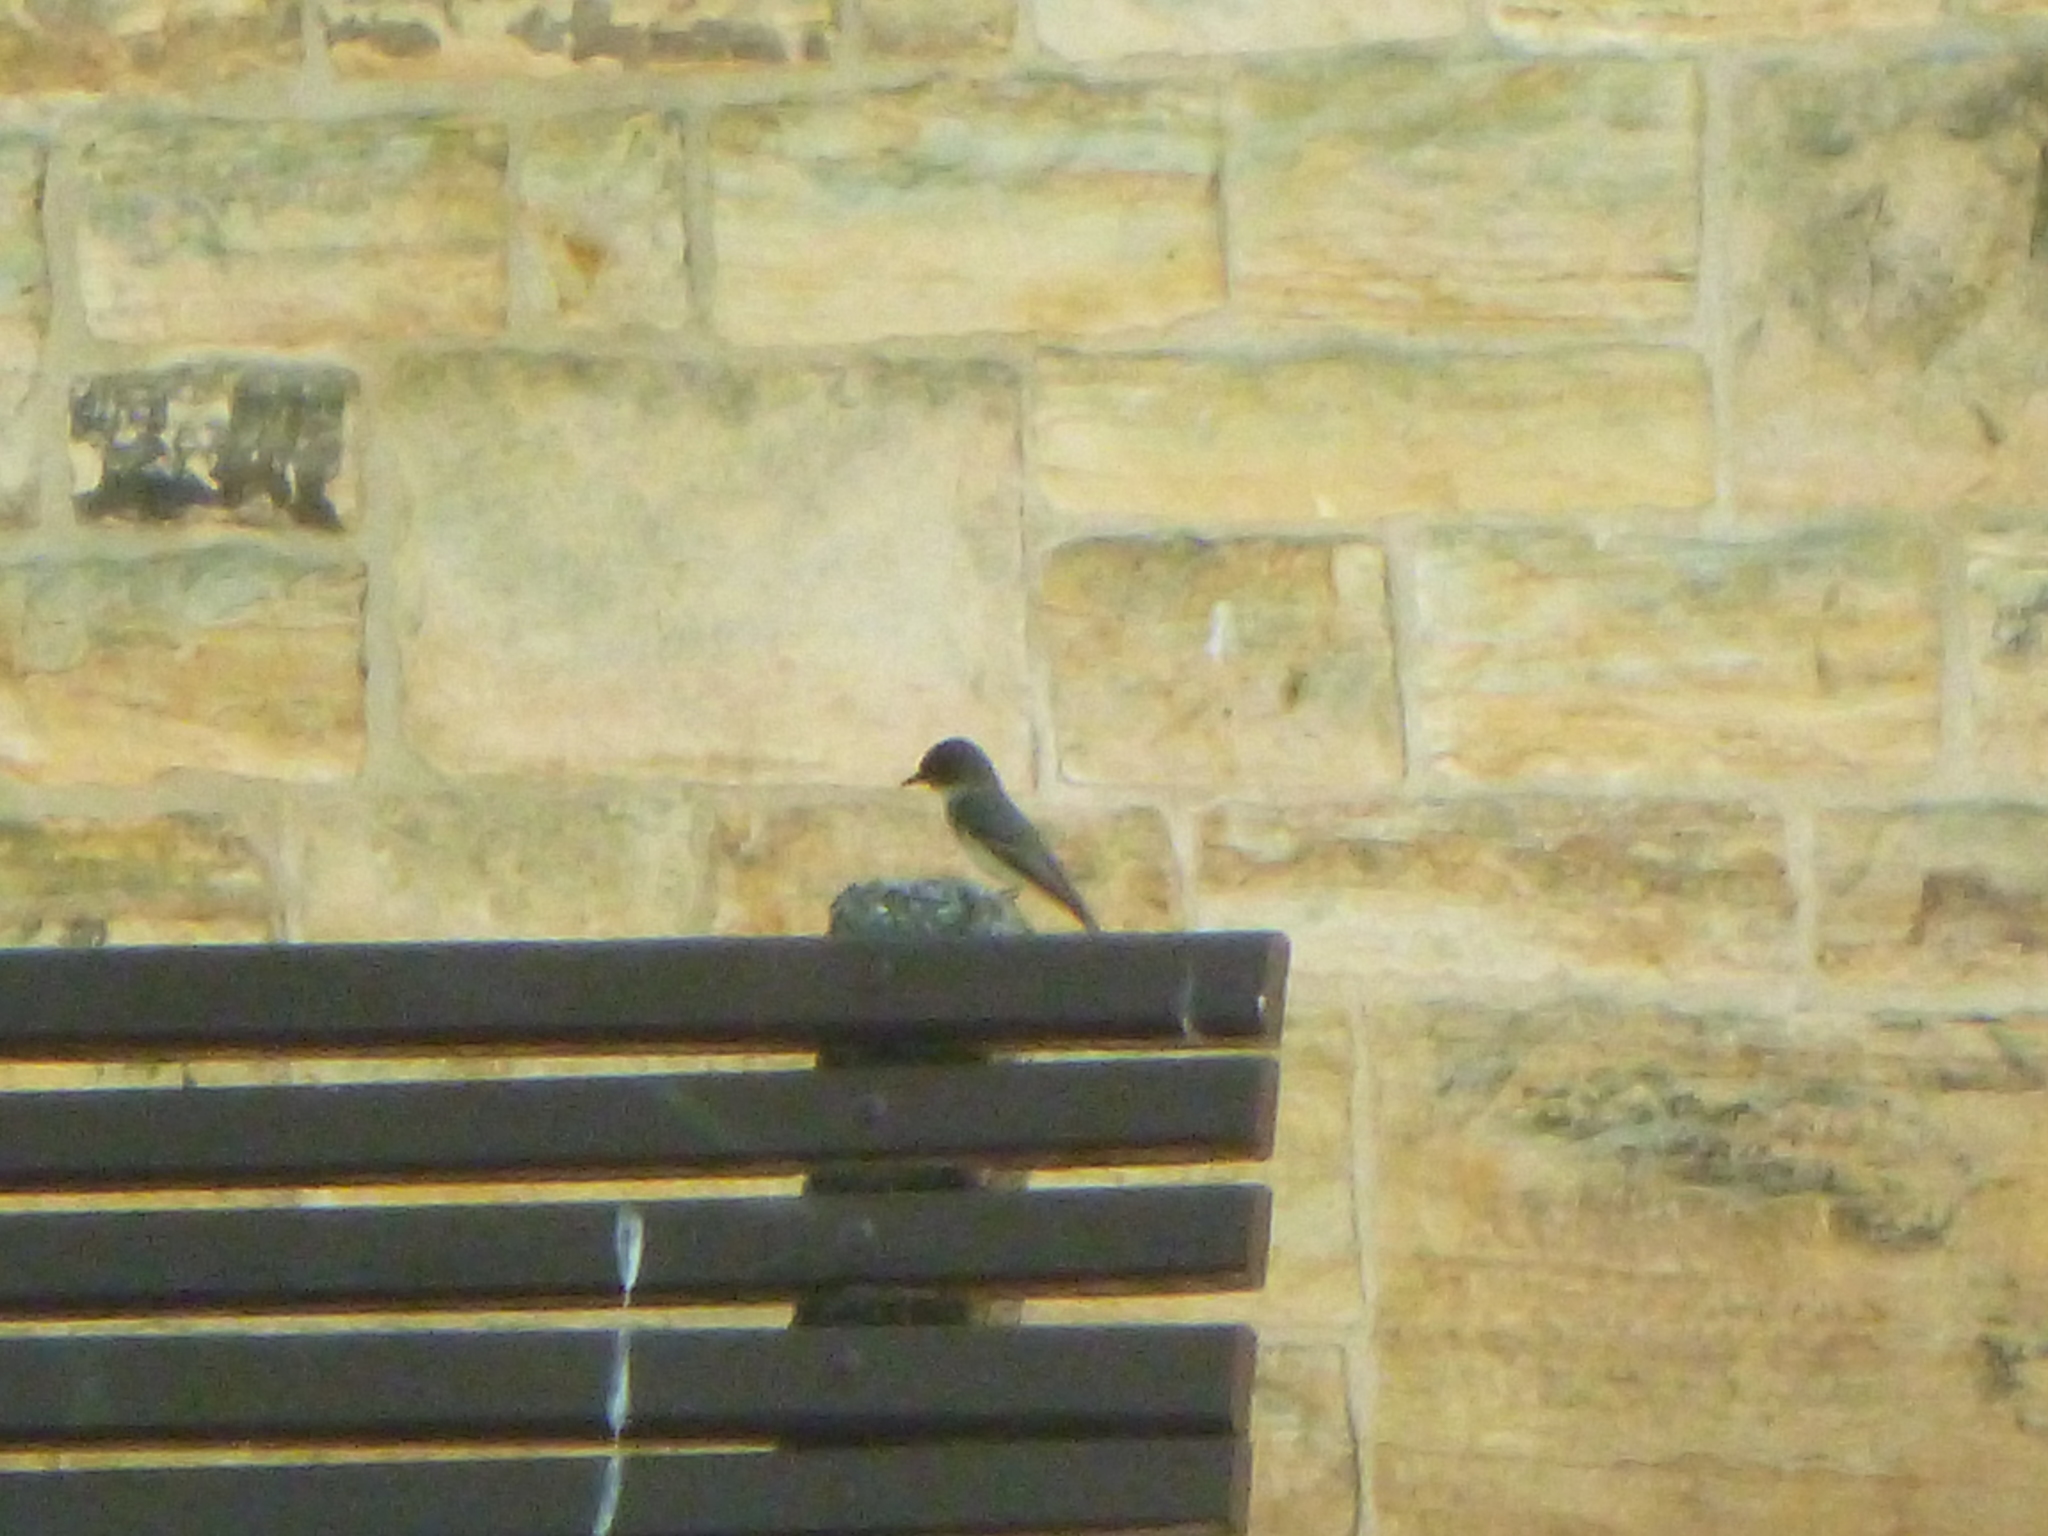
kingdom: Animalia
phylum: Chordata
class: Aves
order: Passeriformes
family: Tyrannidae
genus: Sayornis
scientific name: Sayornis phoebe
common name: Eastern phoebe
